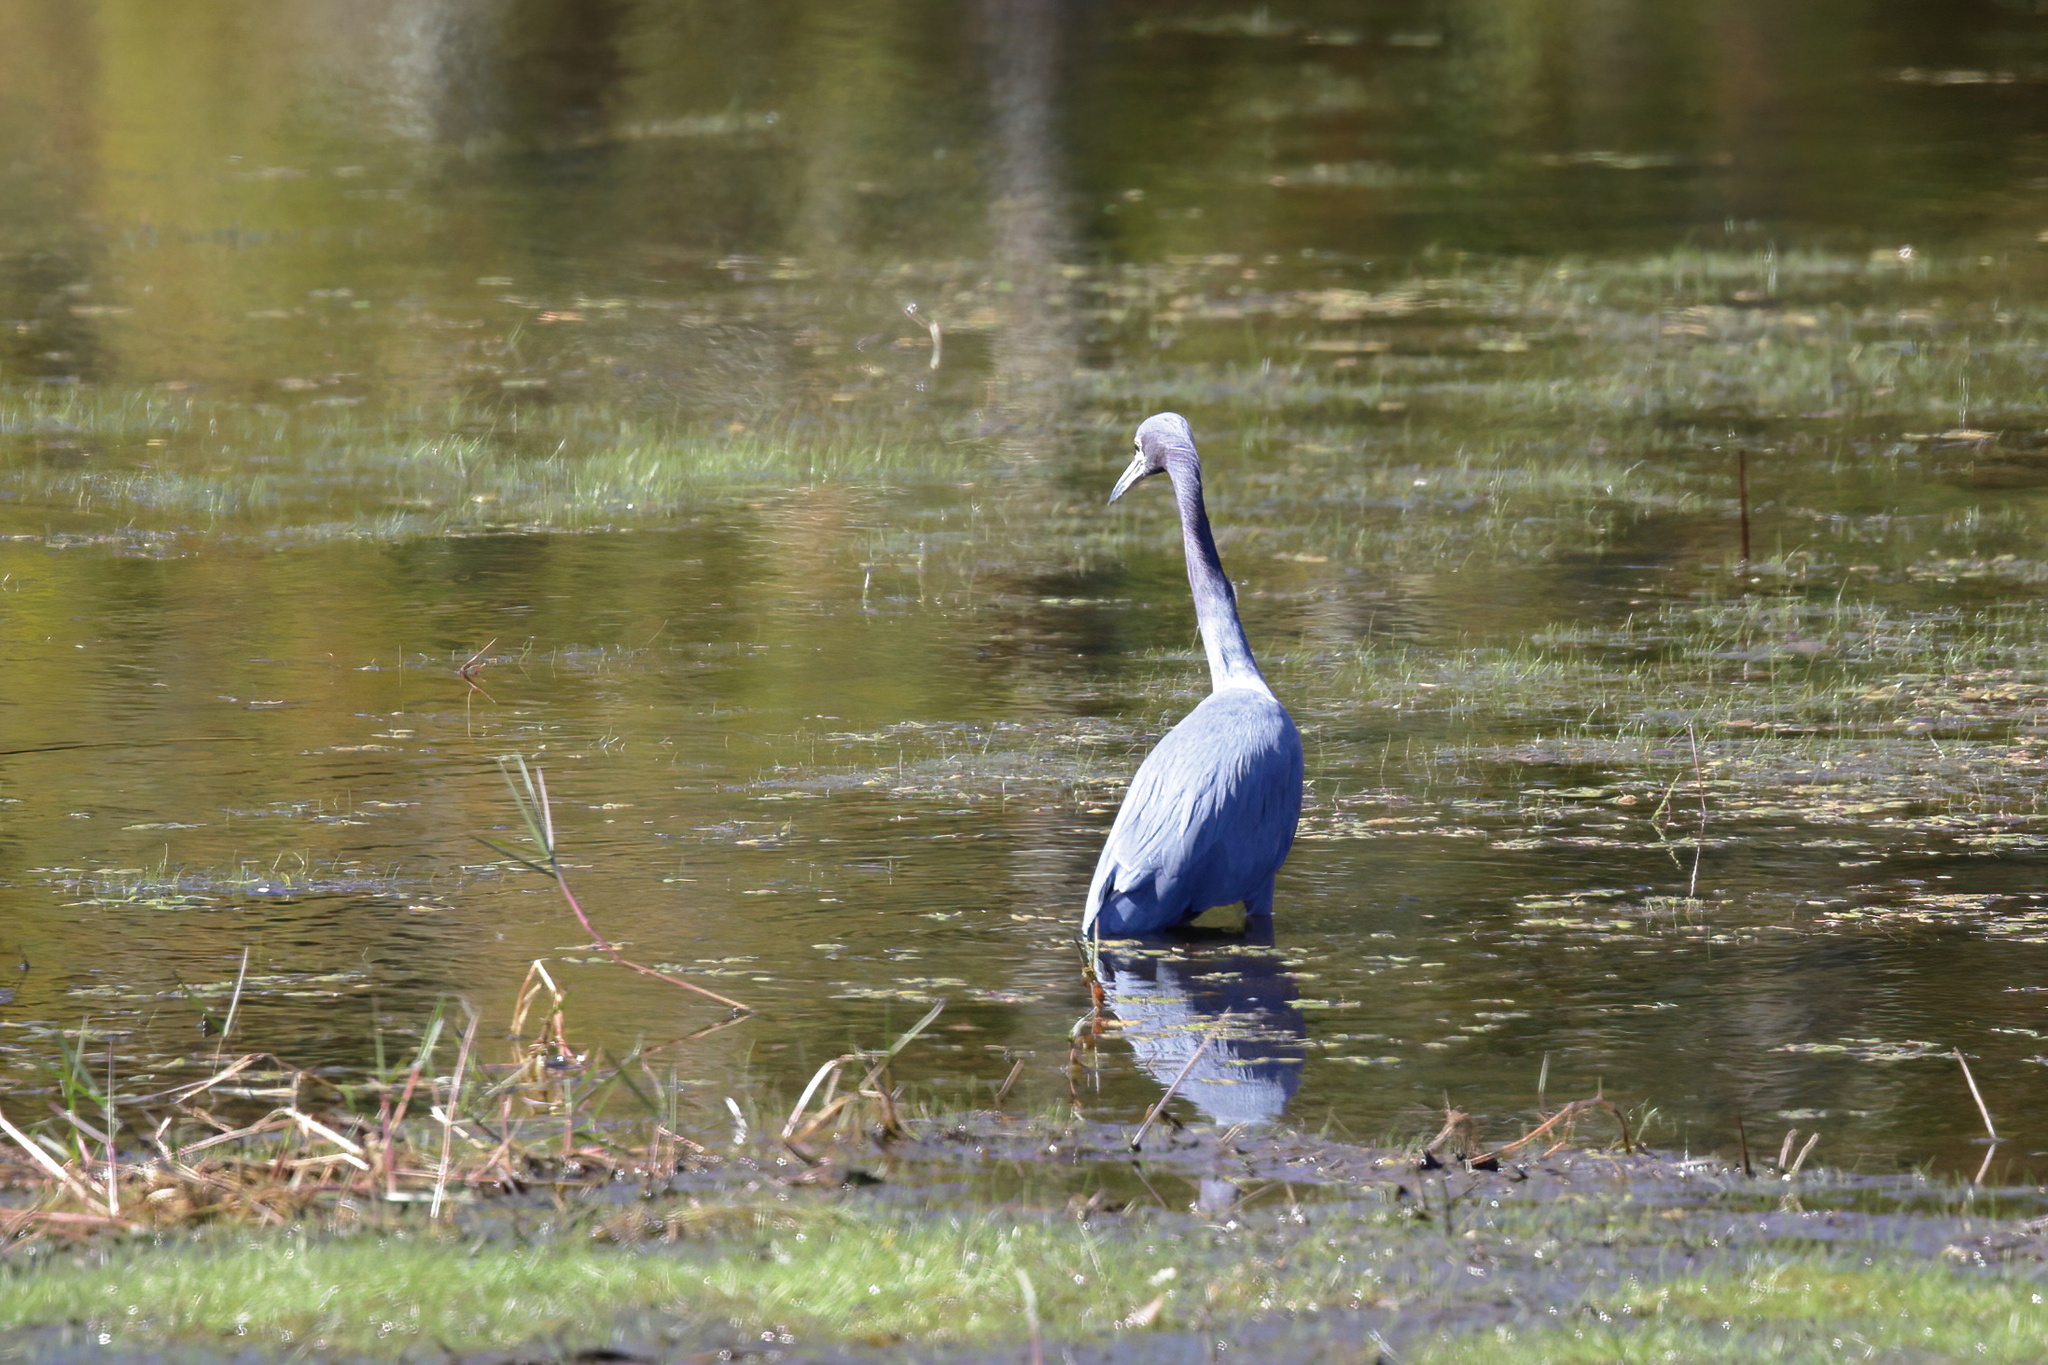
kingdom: Animalia
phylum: Chordata
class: Aves
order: Pelecaniformes
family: Ardeidae
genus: Egretta
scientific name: Egretta caerulea
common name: Little blue heron
